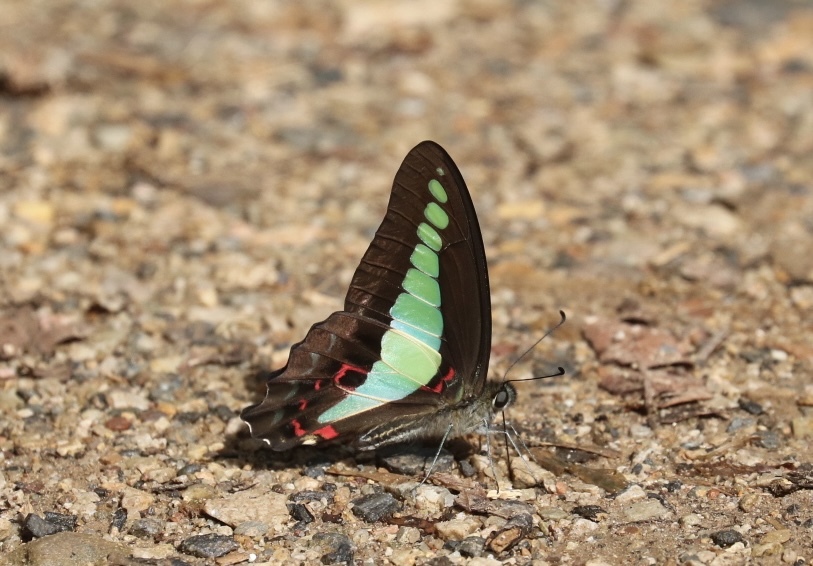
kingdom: Fungi
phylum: Ascomycota
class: Sordariomycetes
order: Microascales
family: Microascaceae
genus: Graphium
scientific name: Graphium sarpedon
